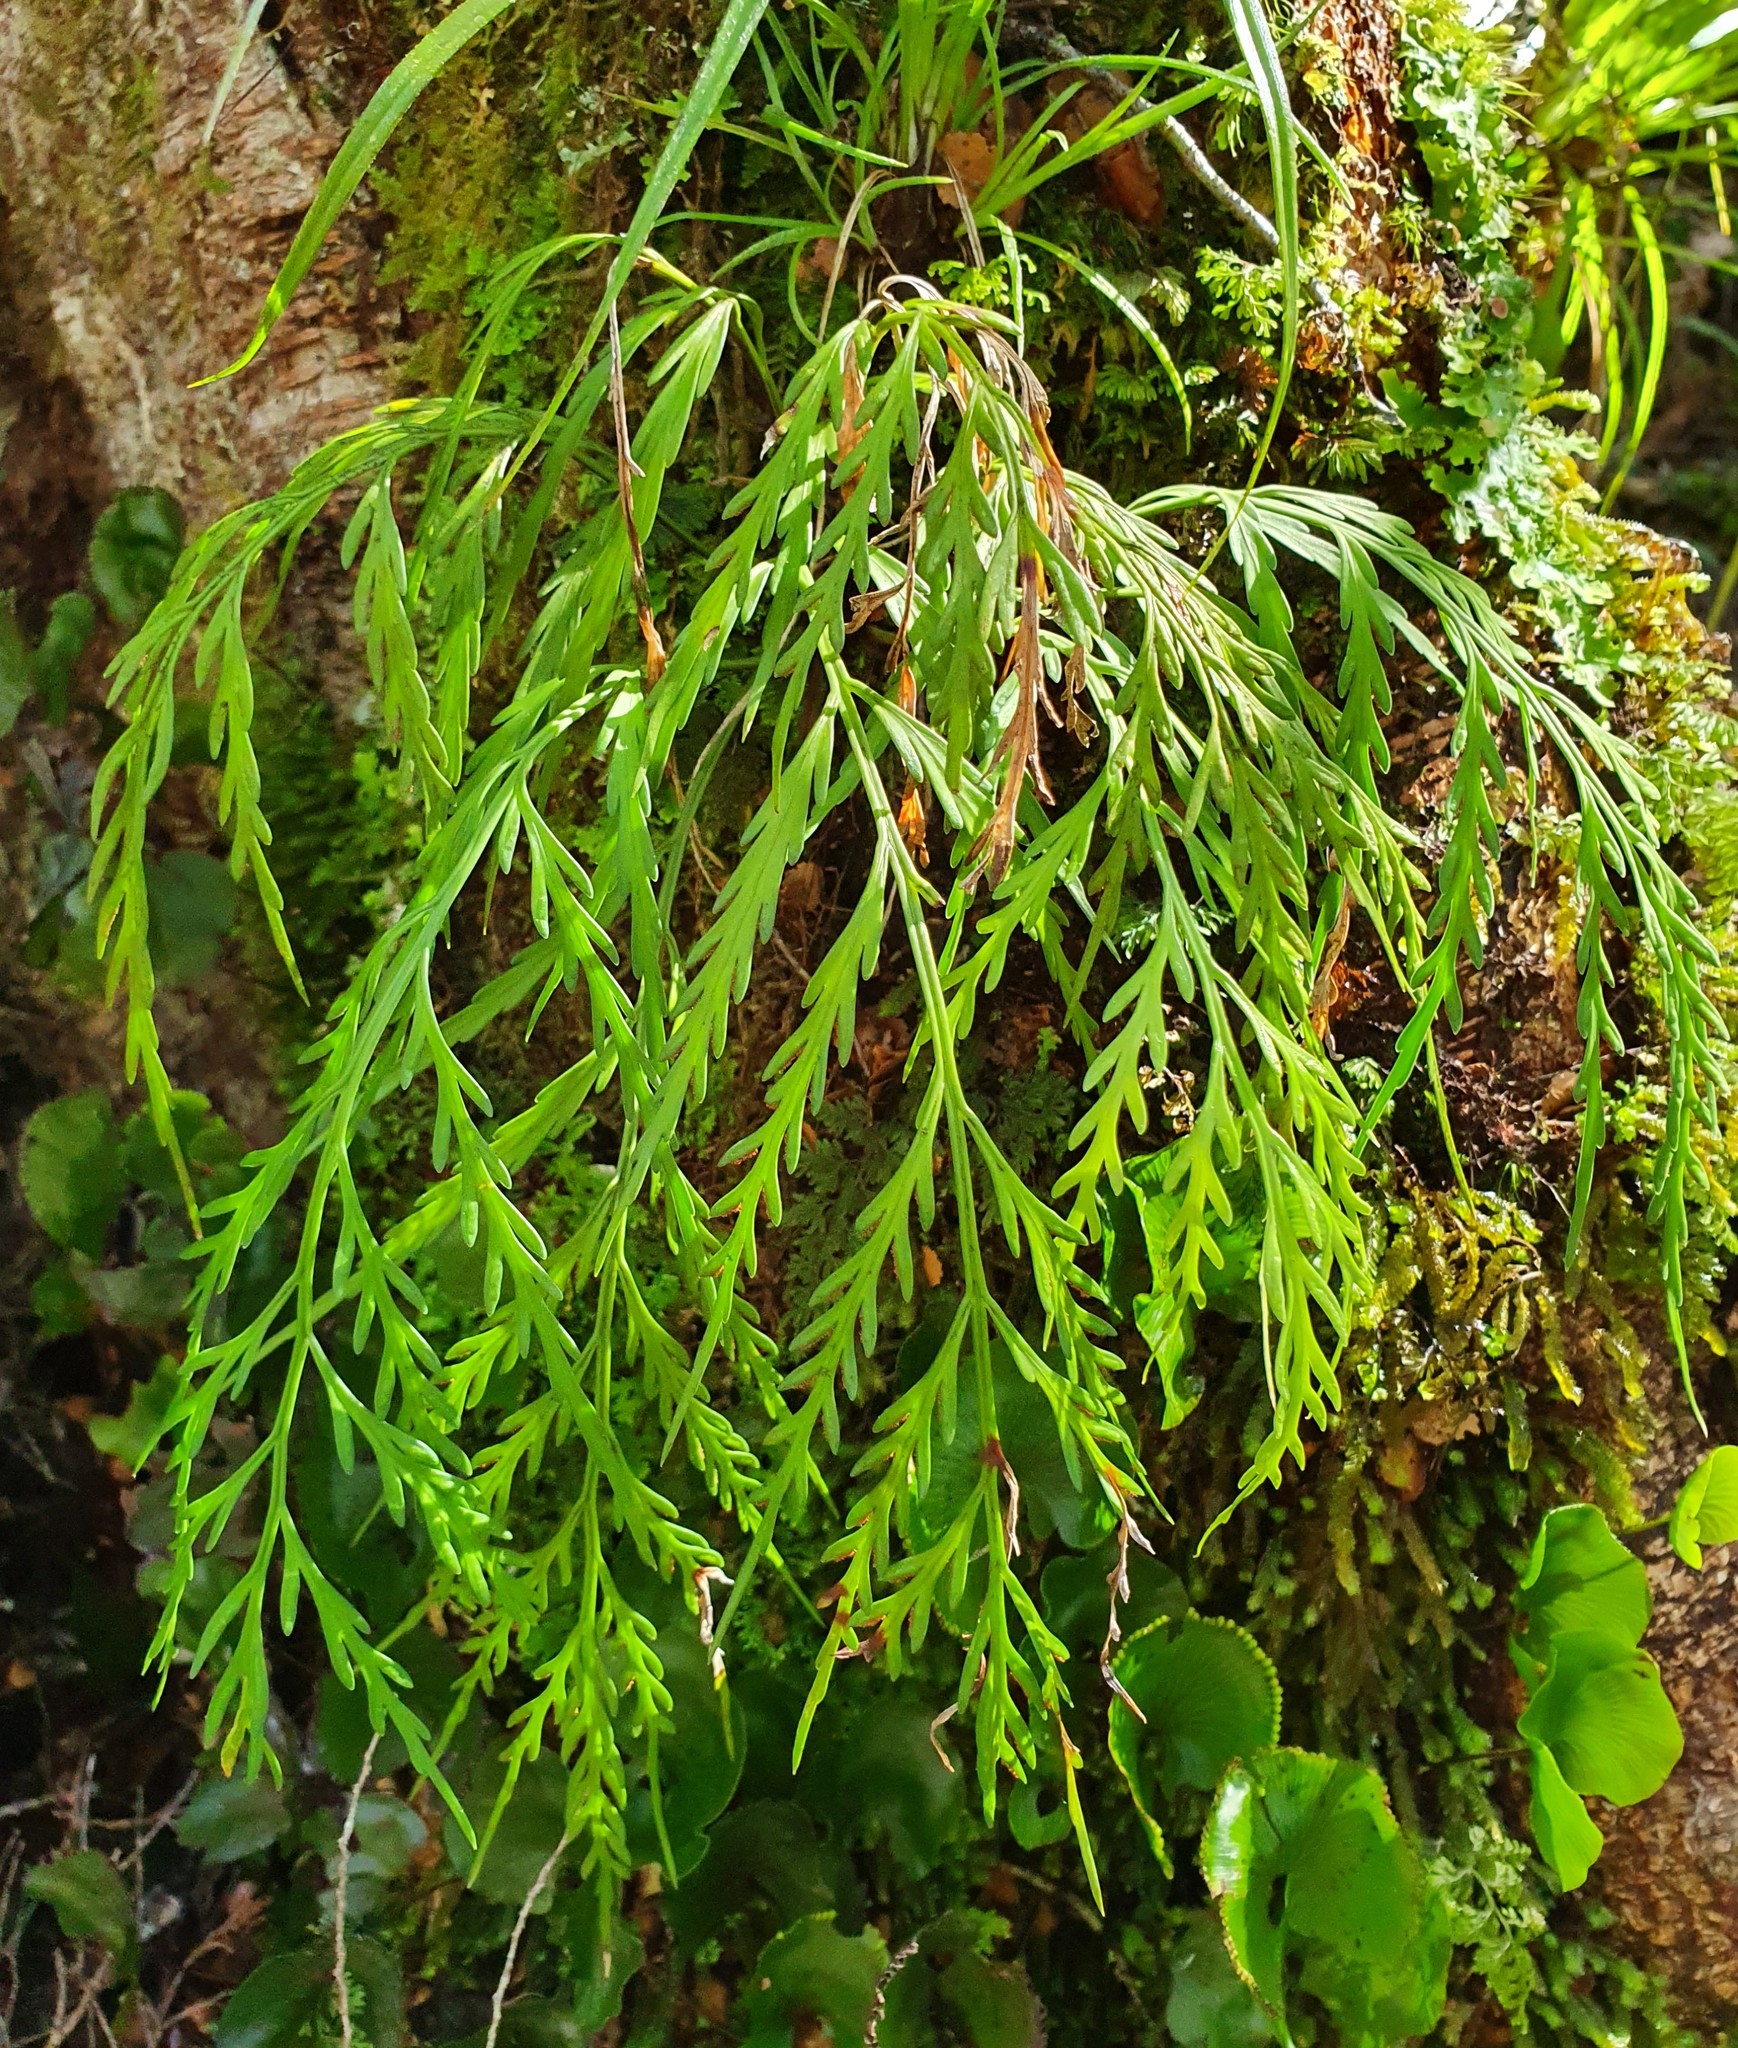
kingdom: Plantae
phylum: Tracheophyta
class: Polypodiopsida
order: Polypodiales
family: Aspleniaceae
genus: Asplenium
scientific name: Asplenium flaccidum
